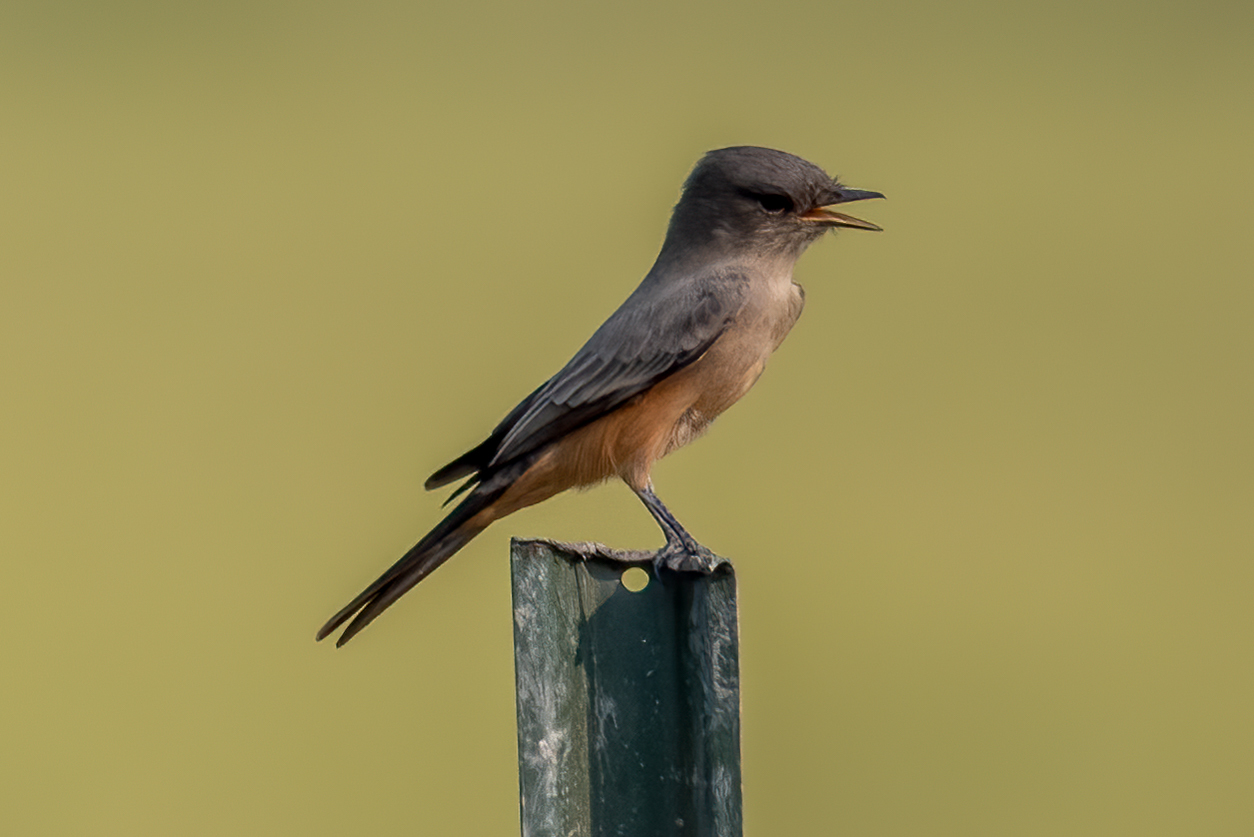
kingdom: Animalia
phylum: Chordata
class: Aves
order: Passeriformes
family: Tyrannidae
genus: Sayornis
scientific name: Sayornis saya
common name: Say's phoebe
